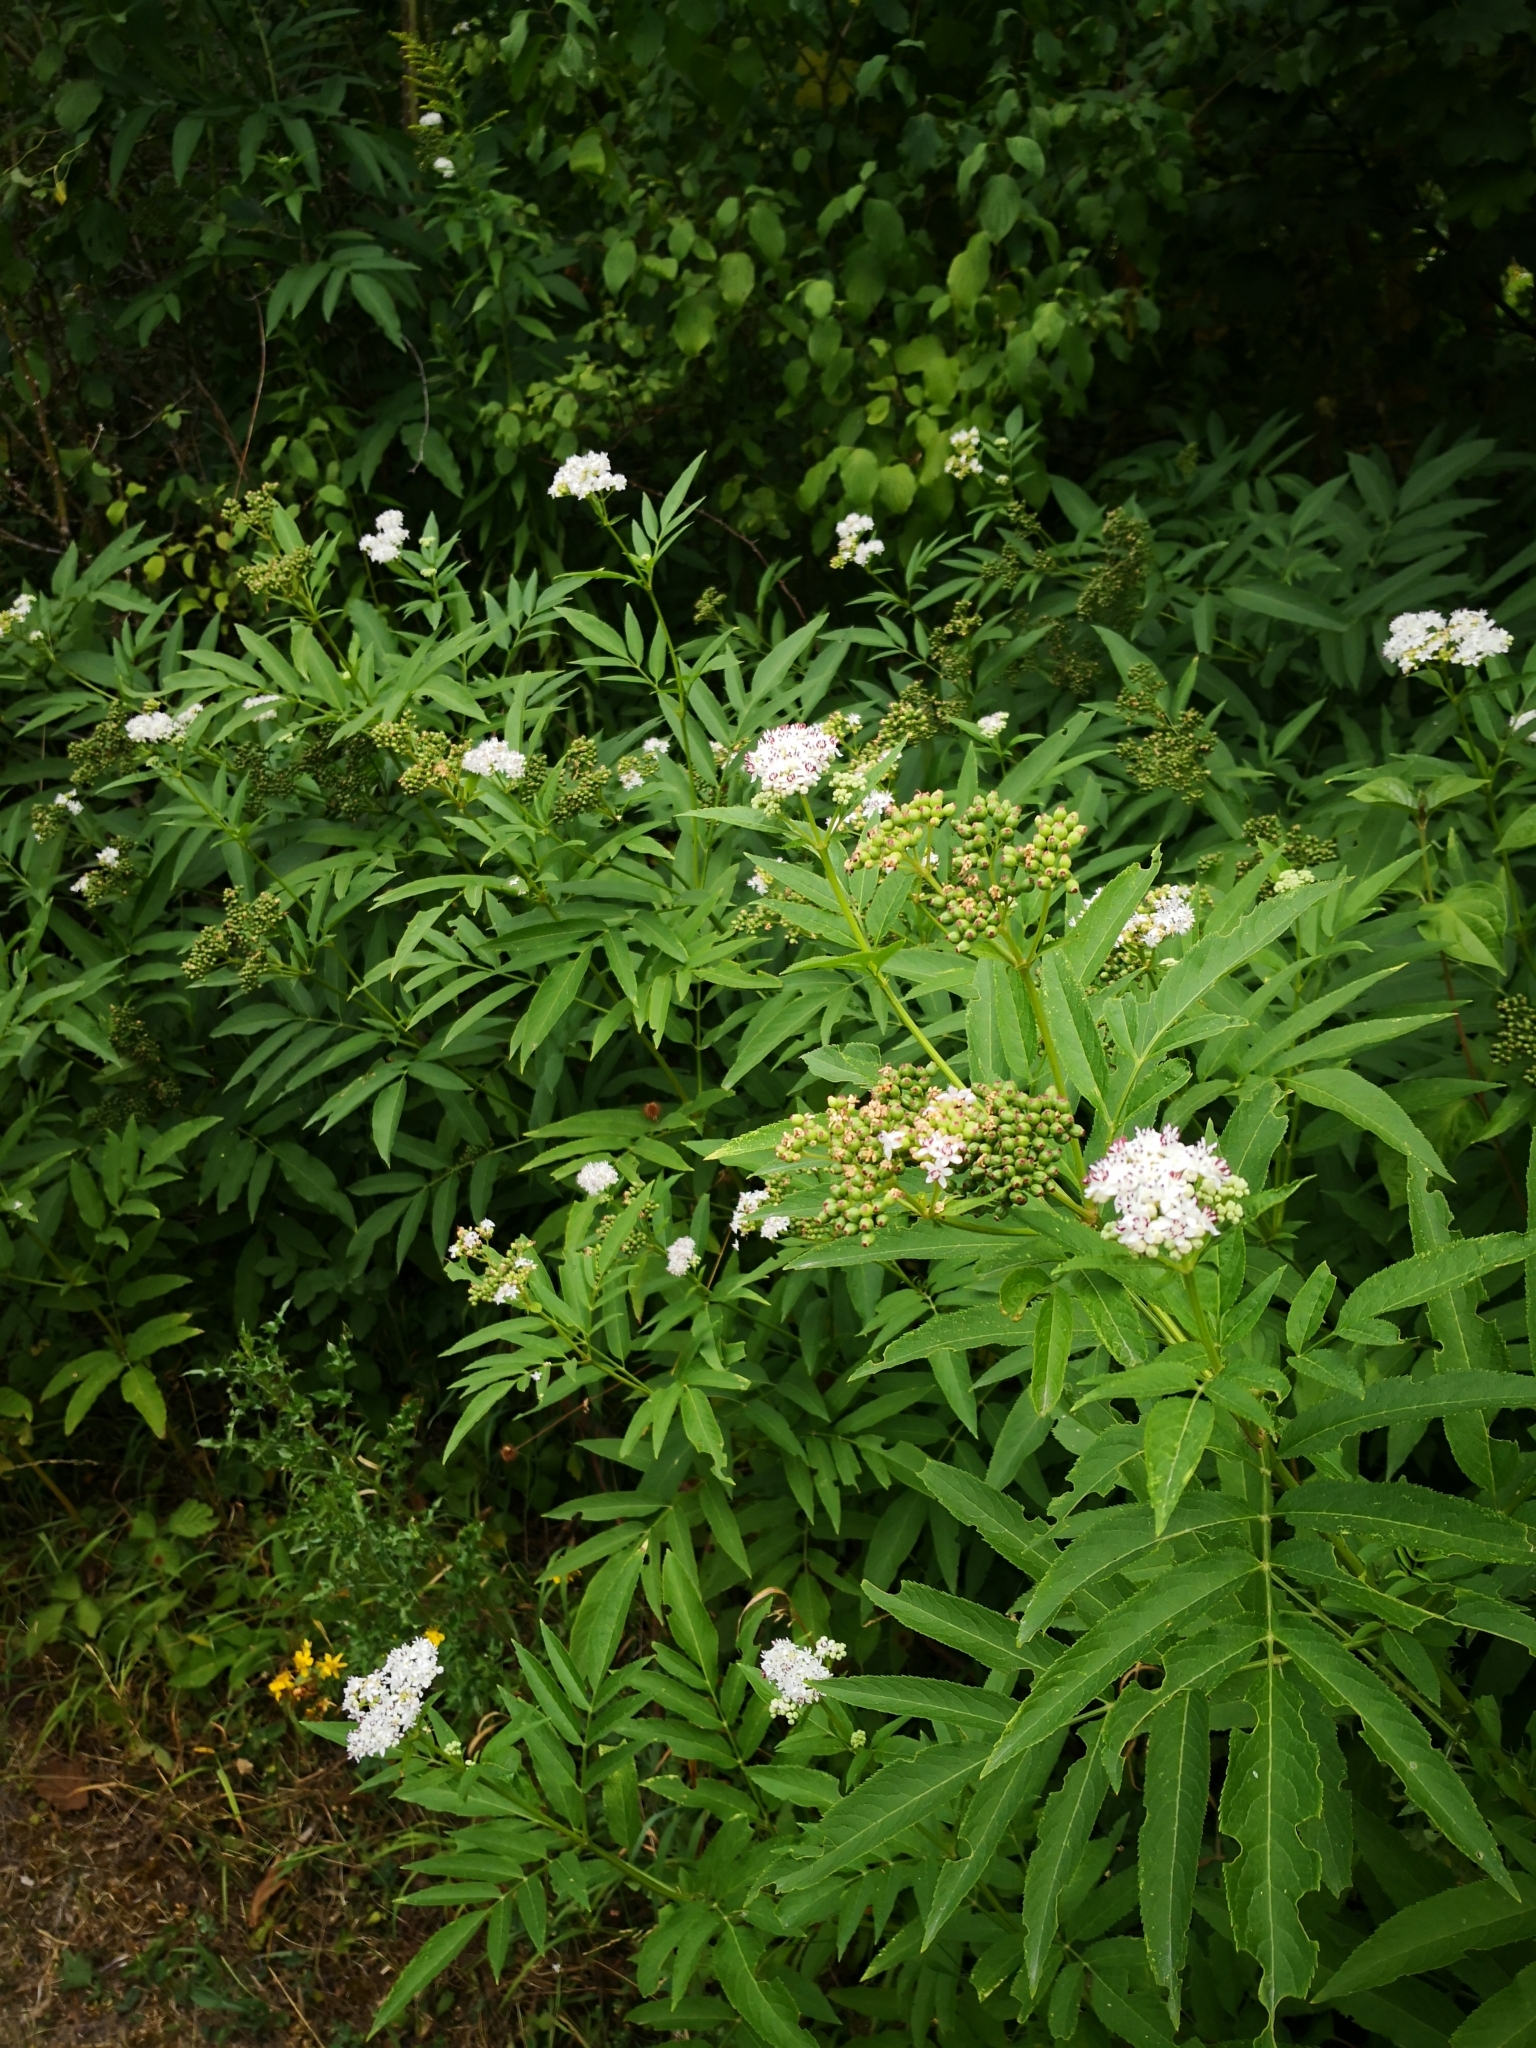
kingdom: Plantae
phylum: Tracheophyta
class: Magnoliopsida
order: Dipsacales
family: Viburnaceae
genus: Sambucus
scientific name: Sambucus ebulus
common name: Dwarf elder
